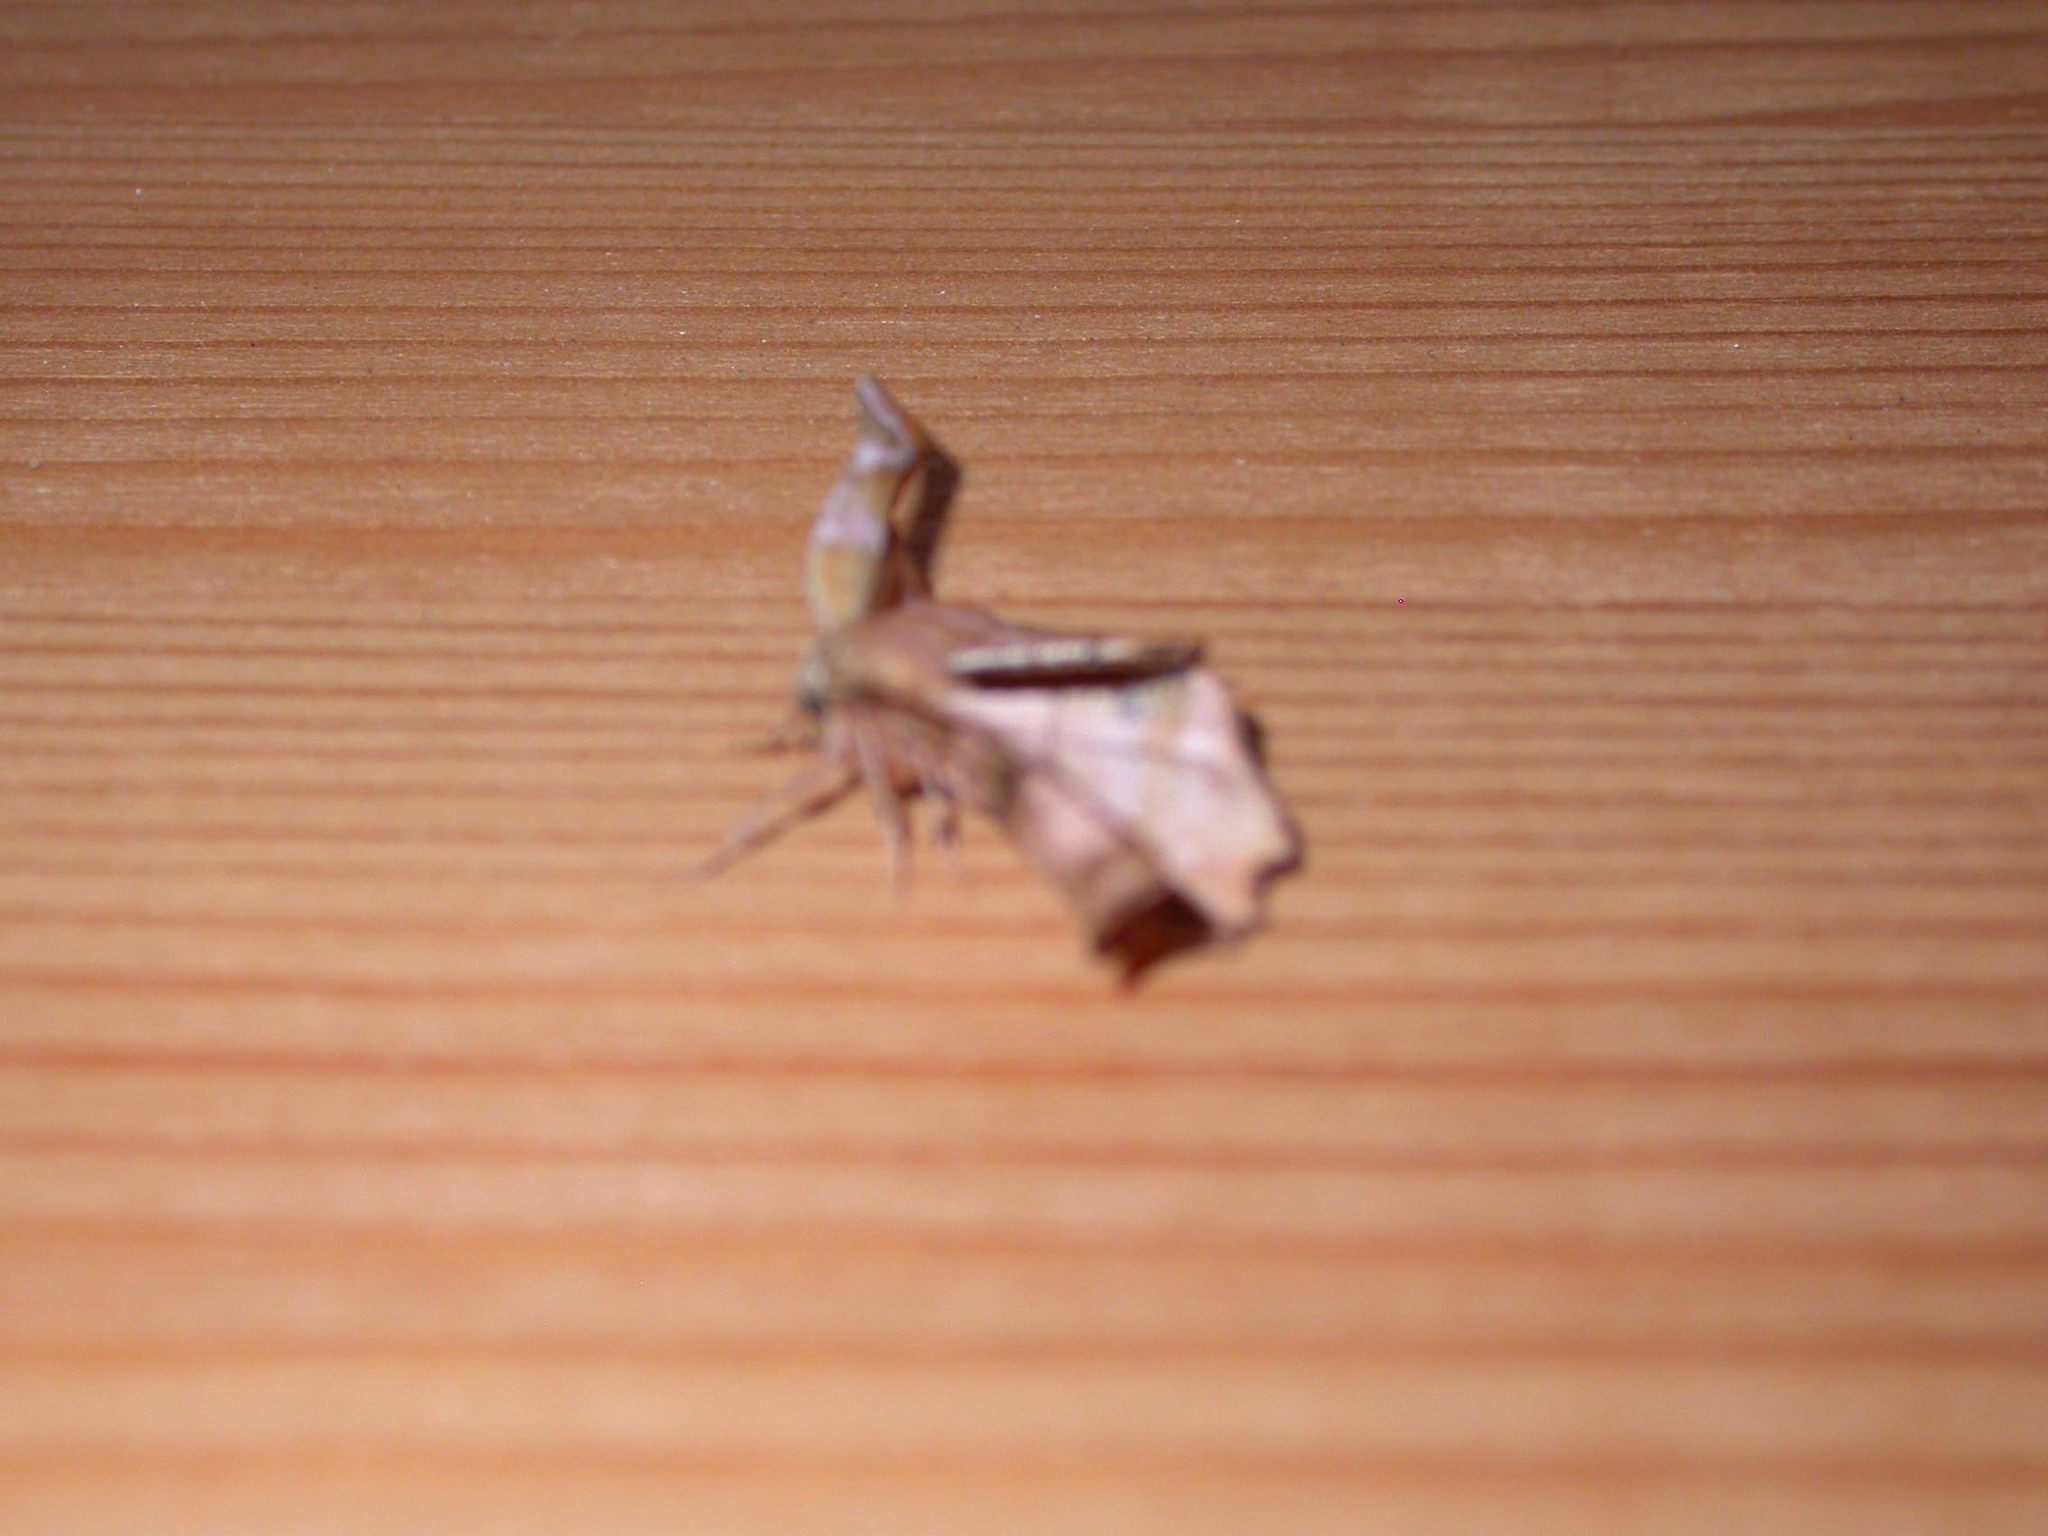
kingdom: Animalia
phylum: Arthropoda
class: Insecta
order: Lepidoptera
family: Geometridae
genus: Apeira
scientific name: Apeira syringaria
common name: Lilac beauty
